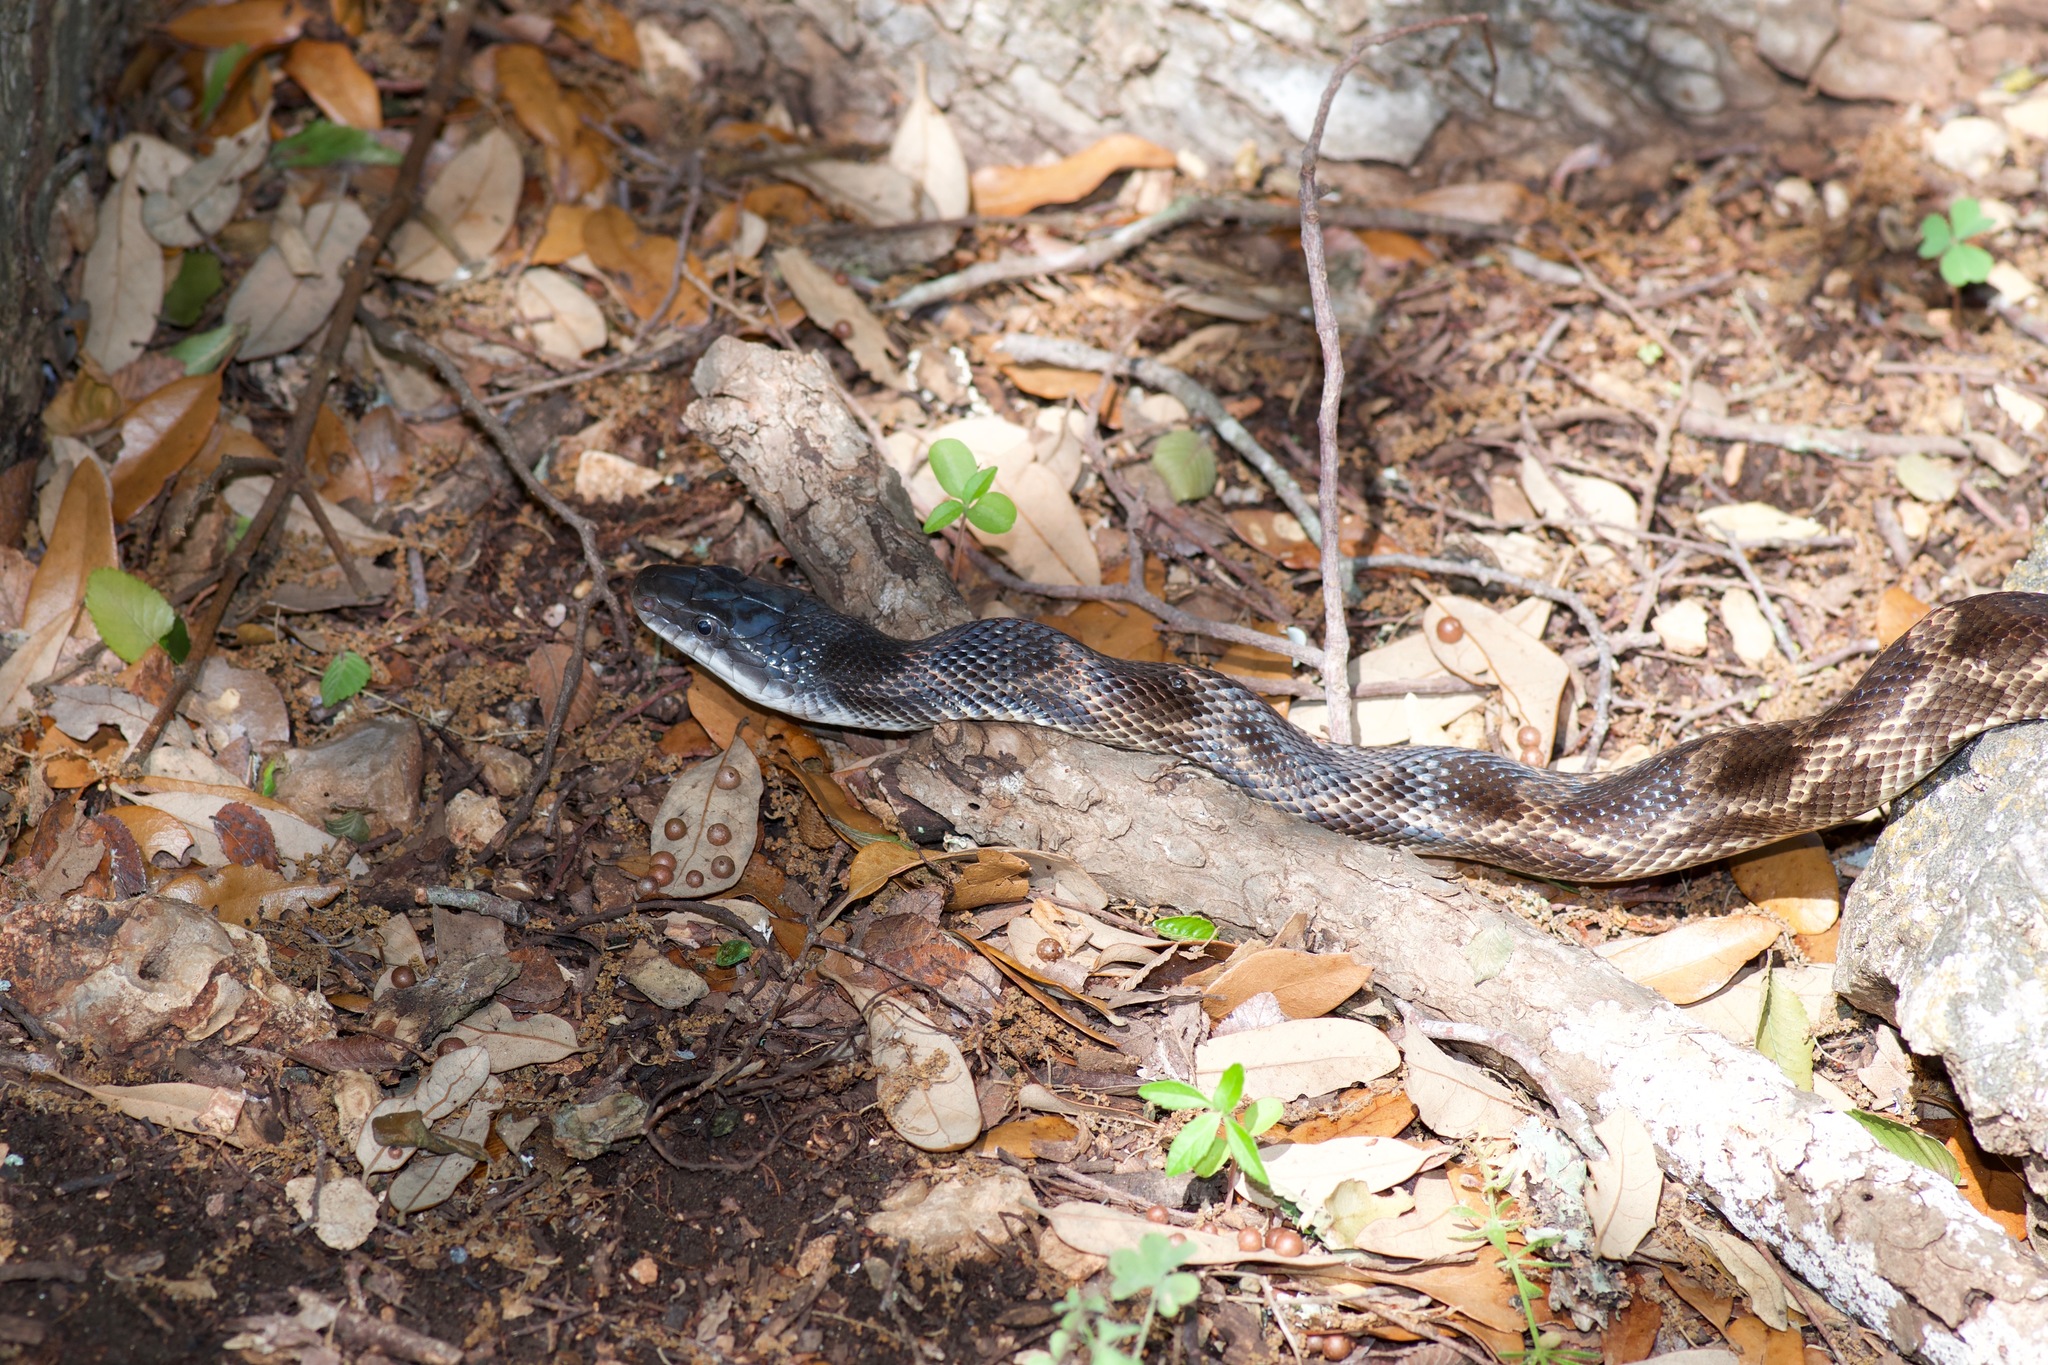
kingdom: Animalia
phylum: Chordata
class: Squamata
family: Colubridae
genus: Pantherophis
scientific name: Pantherophis obsoletus
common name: Black rat snake
